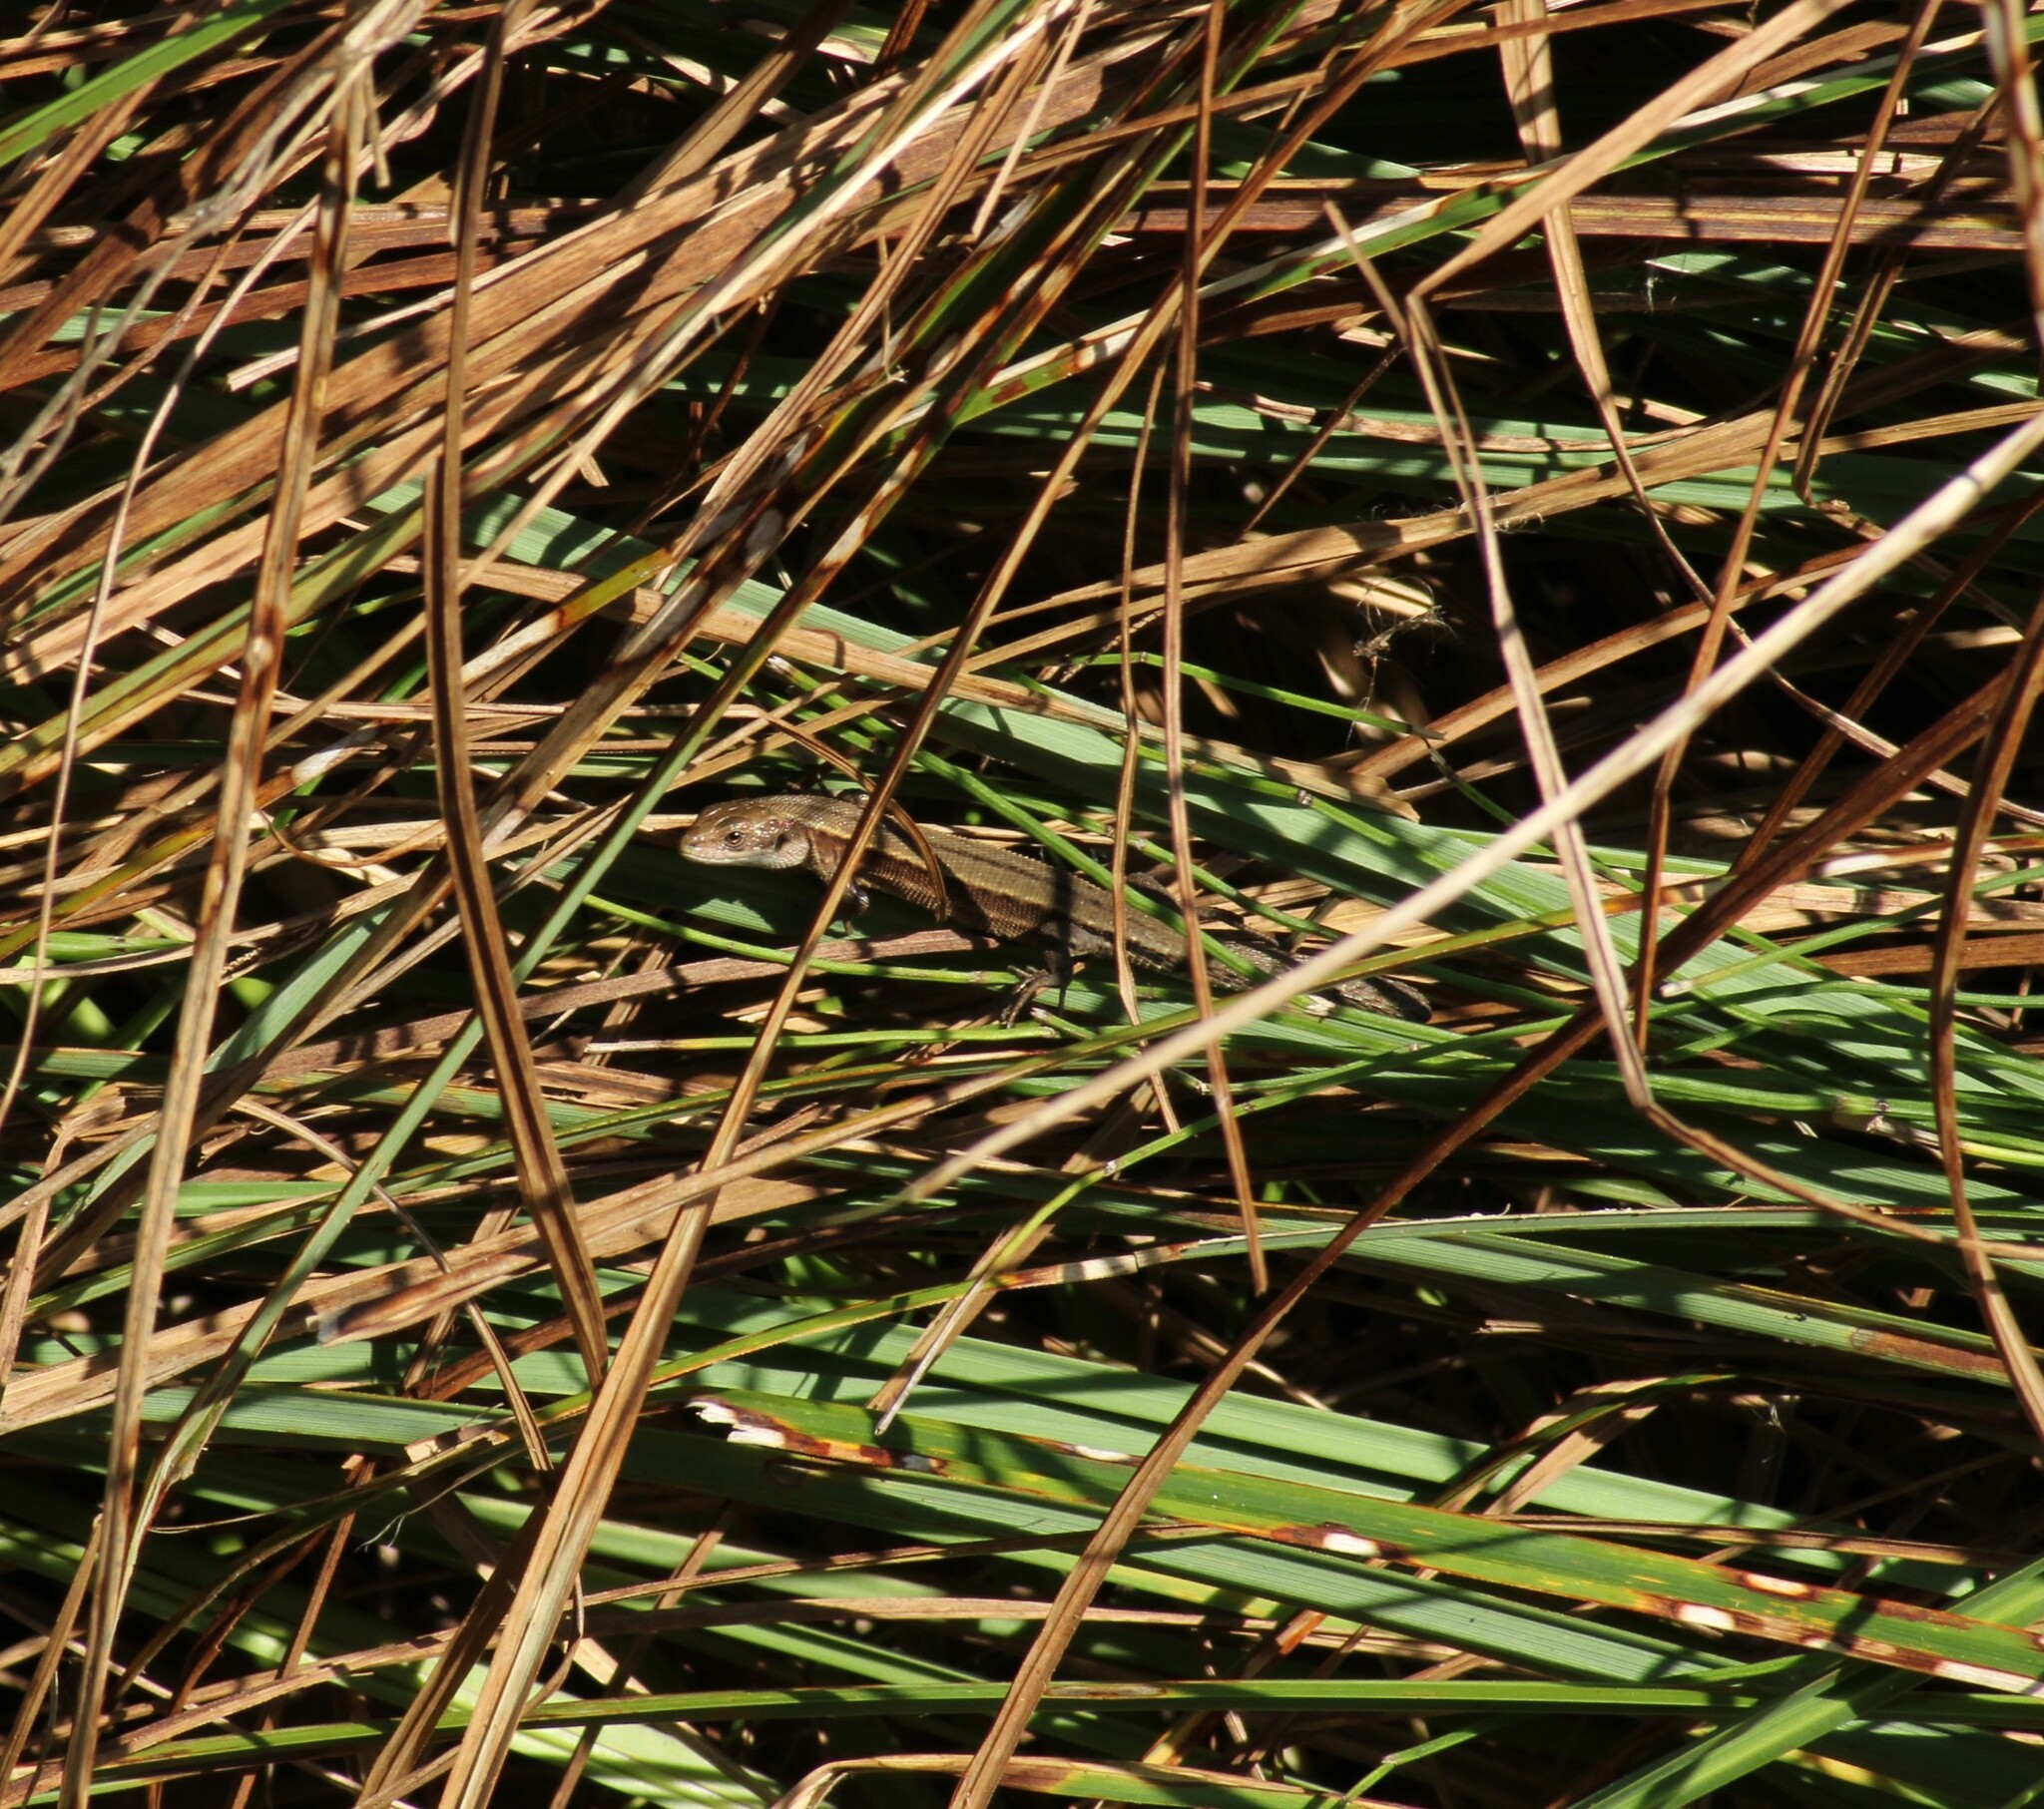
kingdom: Animalia
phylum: Chordata
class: Squamata
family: Lacertidae
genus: Zootoca
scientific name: Zootoca vivipara
